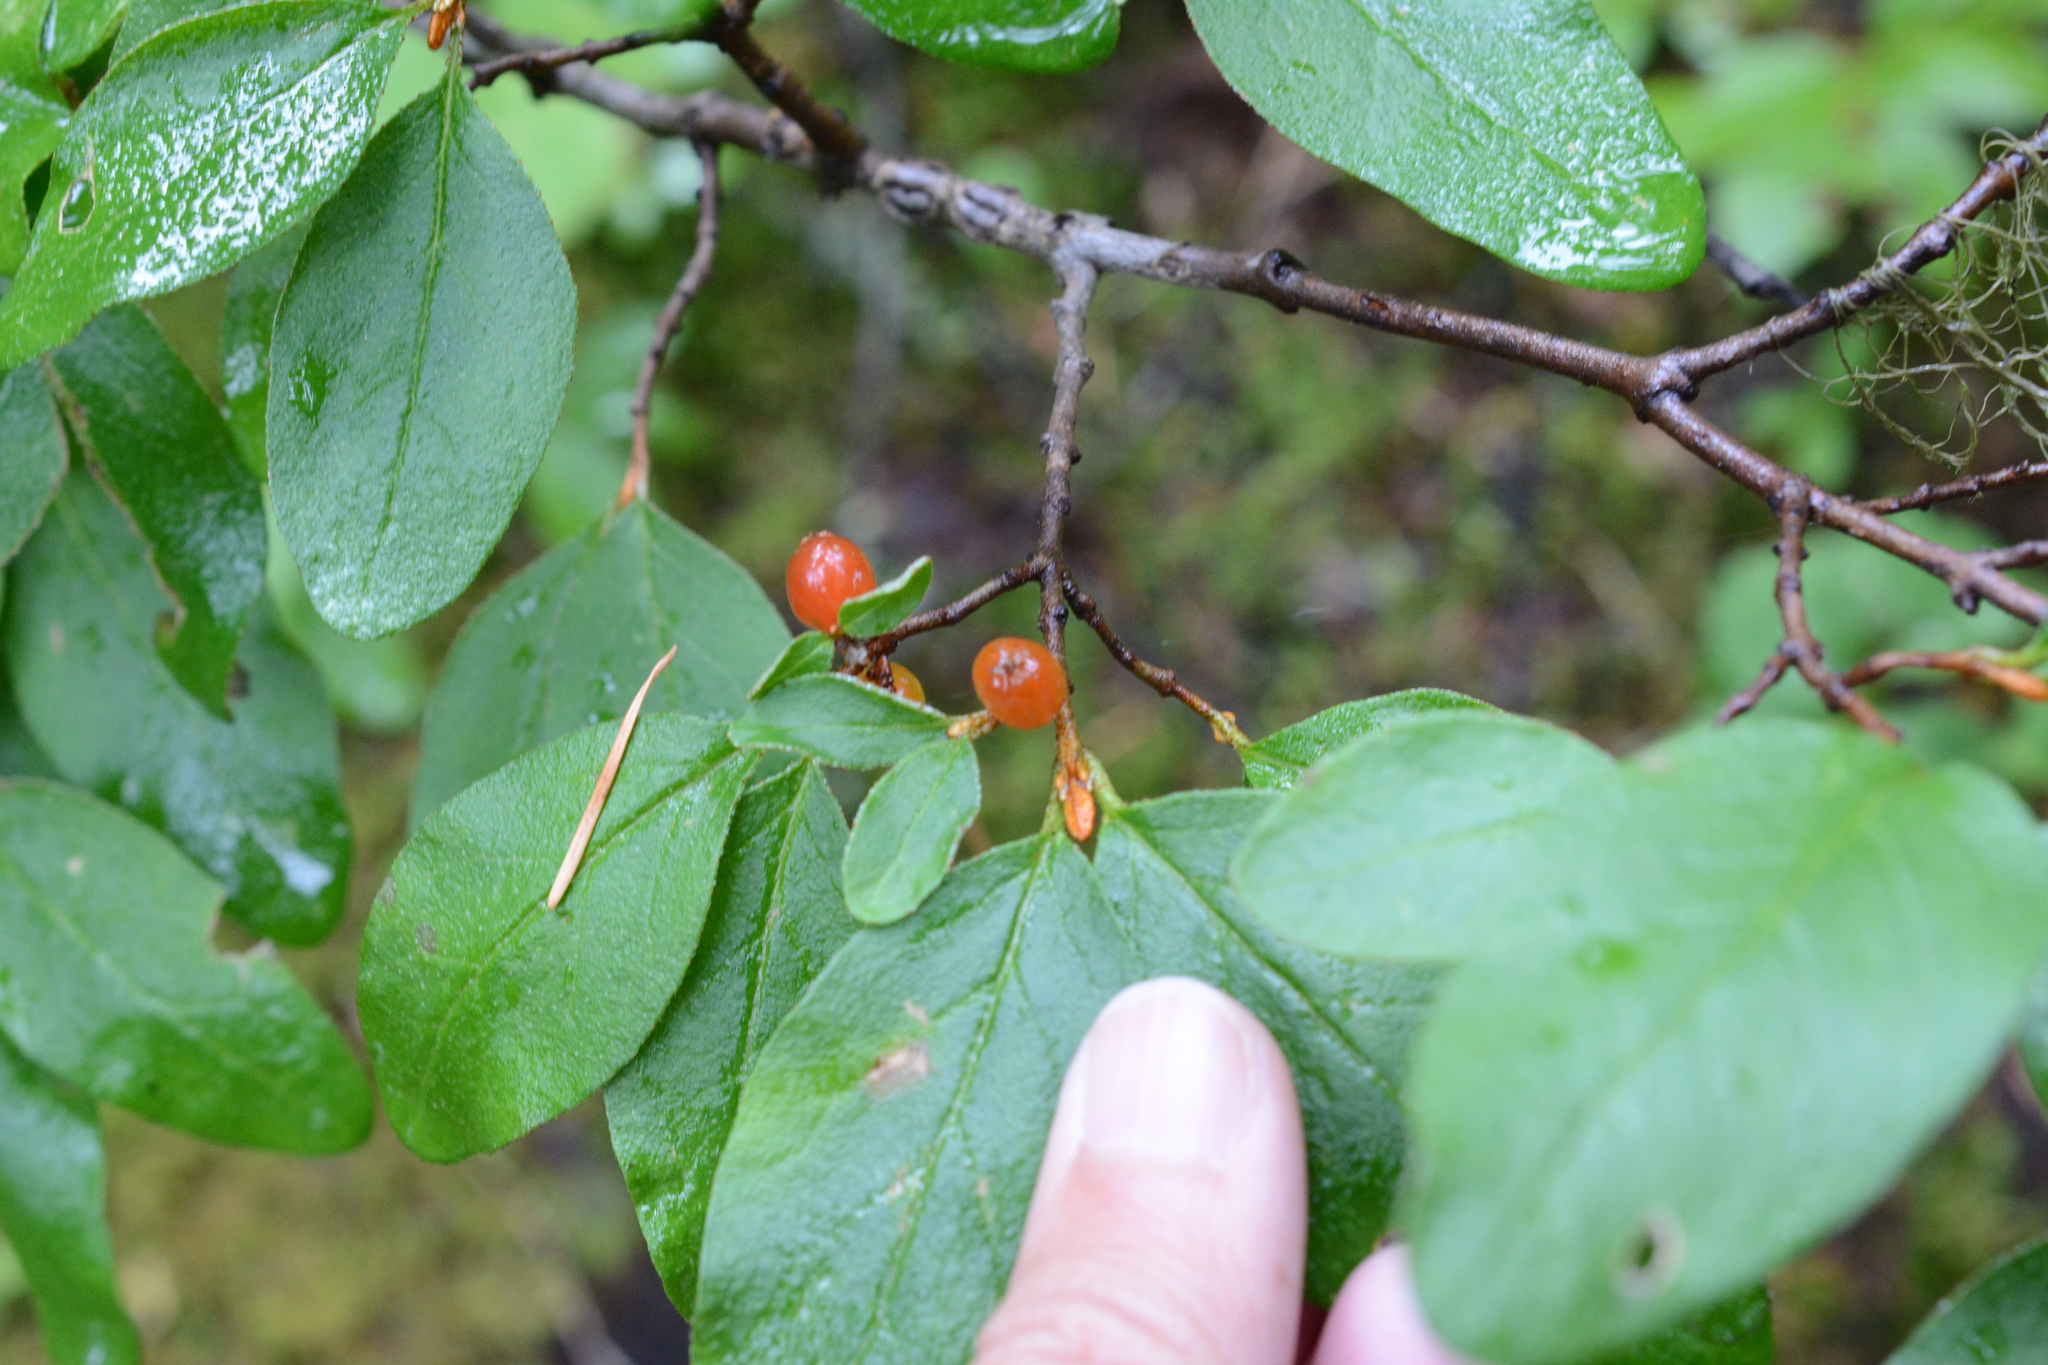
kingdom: Plantae
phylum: Tracheophyta
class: Magnoliopsida
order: Rosales
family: Elaeagnaceae
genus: Shepherdia
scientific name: Shepherdia canadensis
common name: Soapberry
